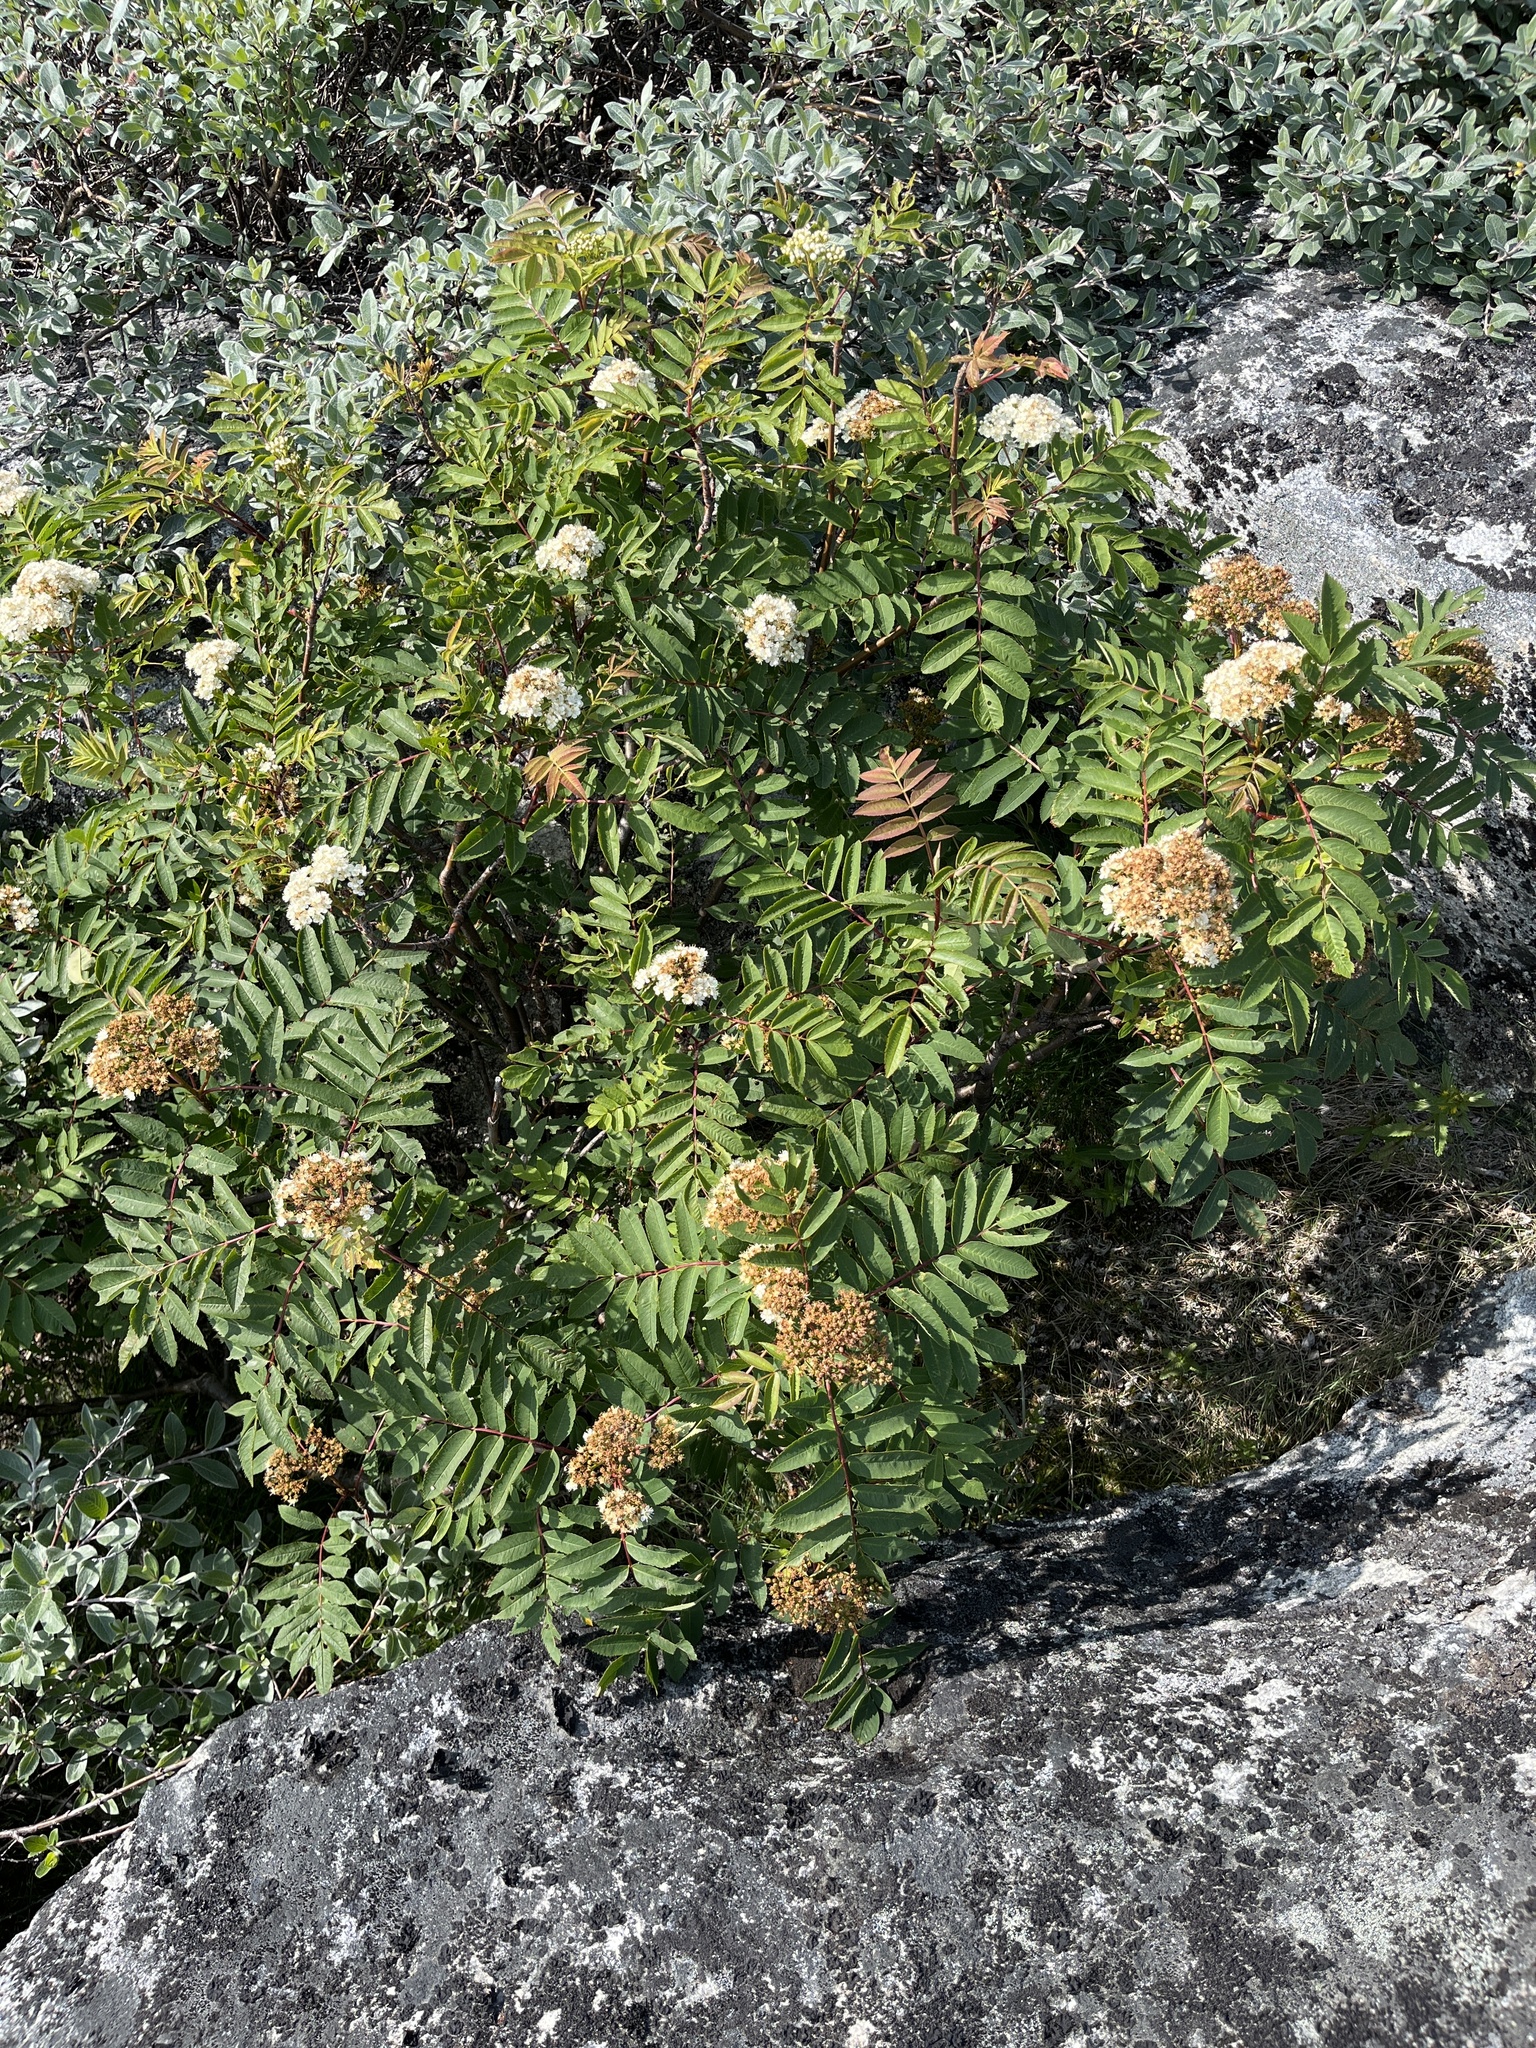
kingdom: Plantae
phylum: Tracheophyta
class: Magnoliopsida
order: Rosales
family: Rosaceae
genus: Sorbus
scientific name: Sorbus decora
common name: Northern mountain-ash
